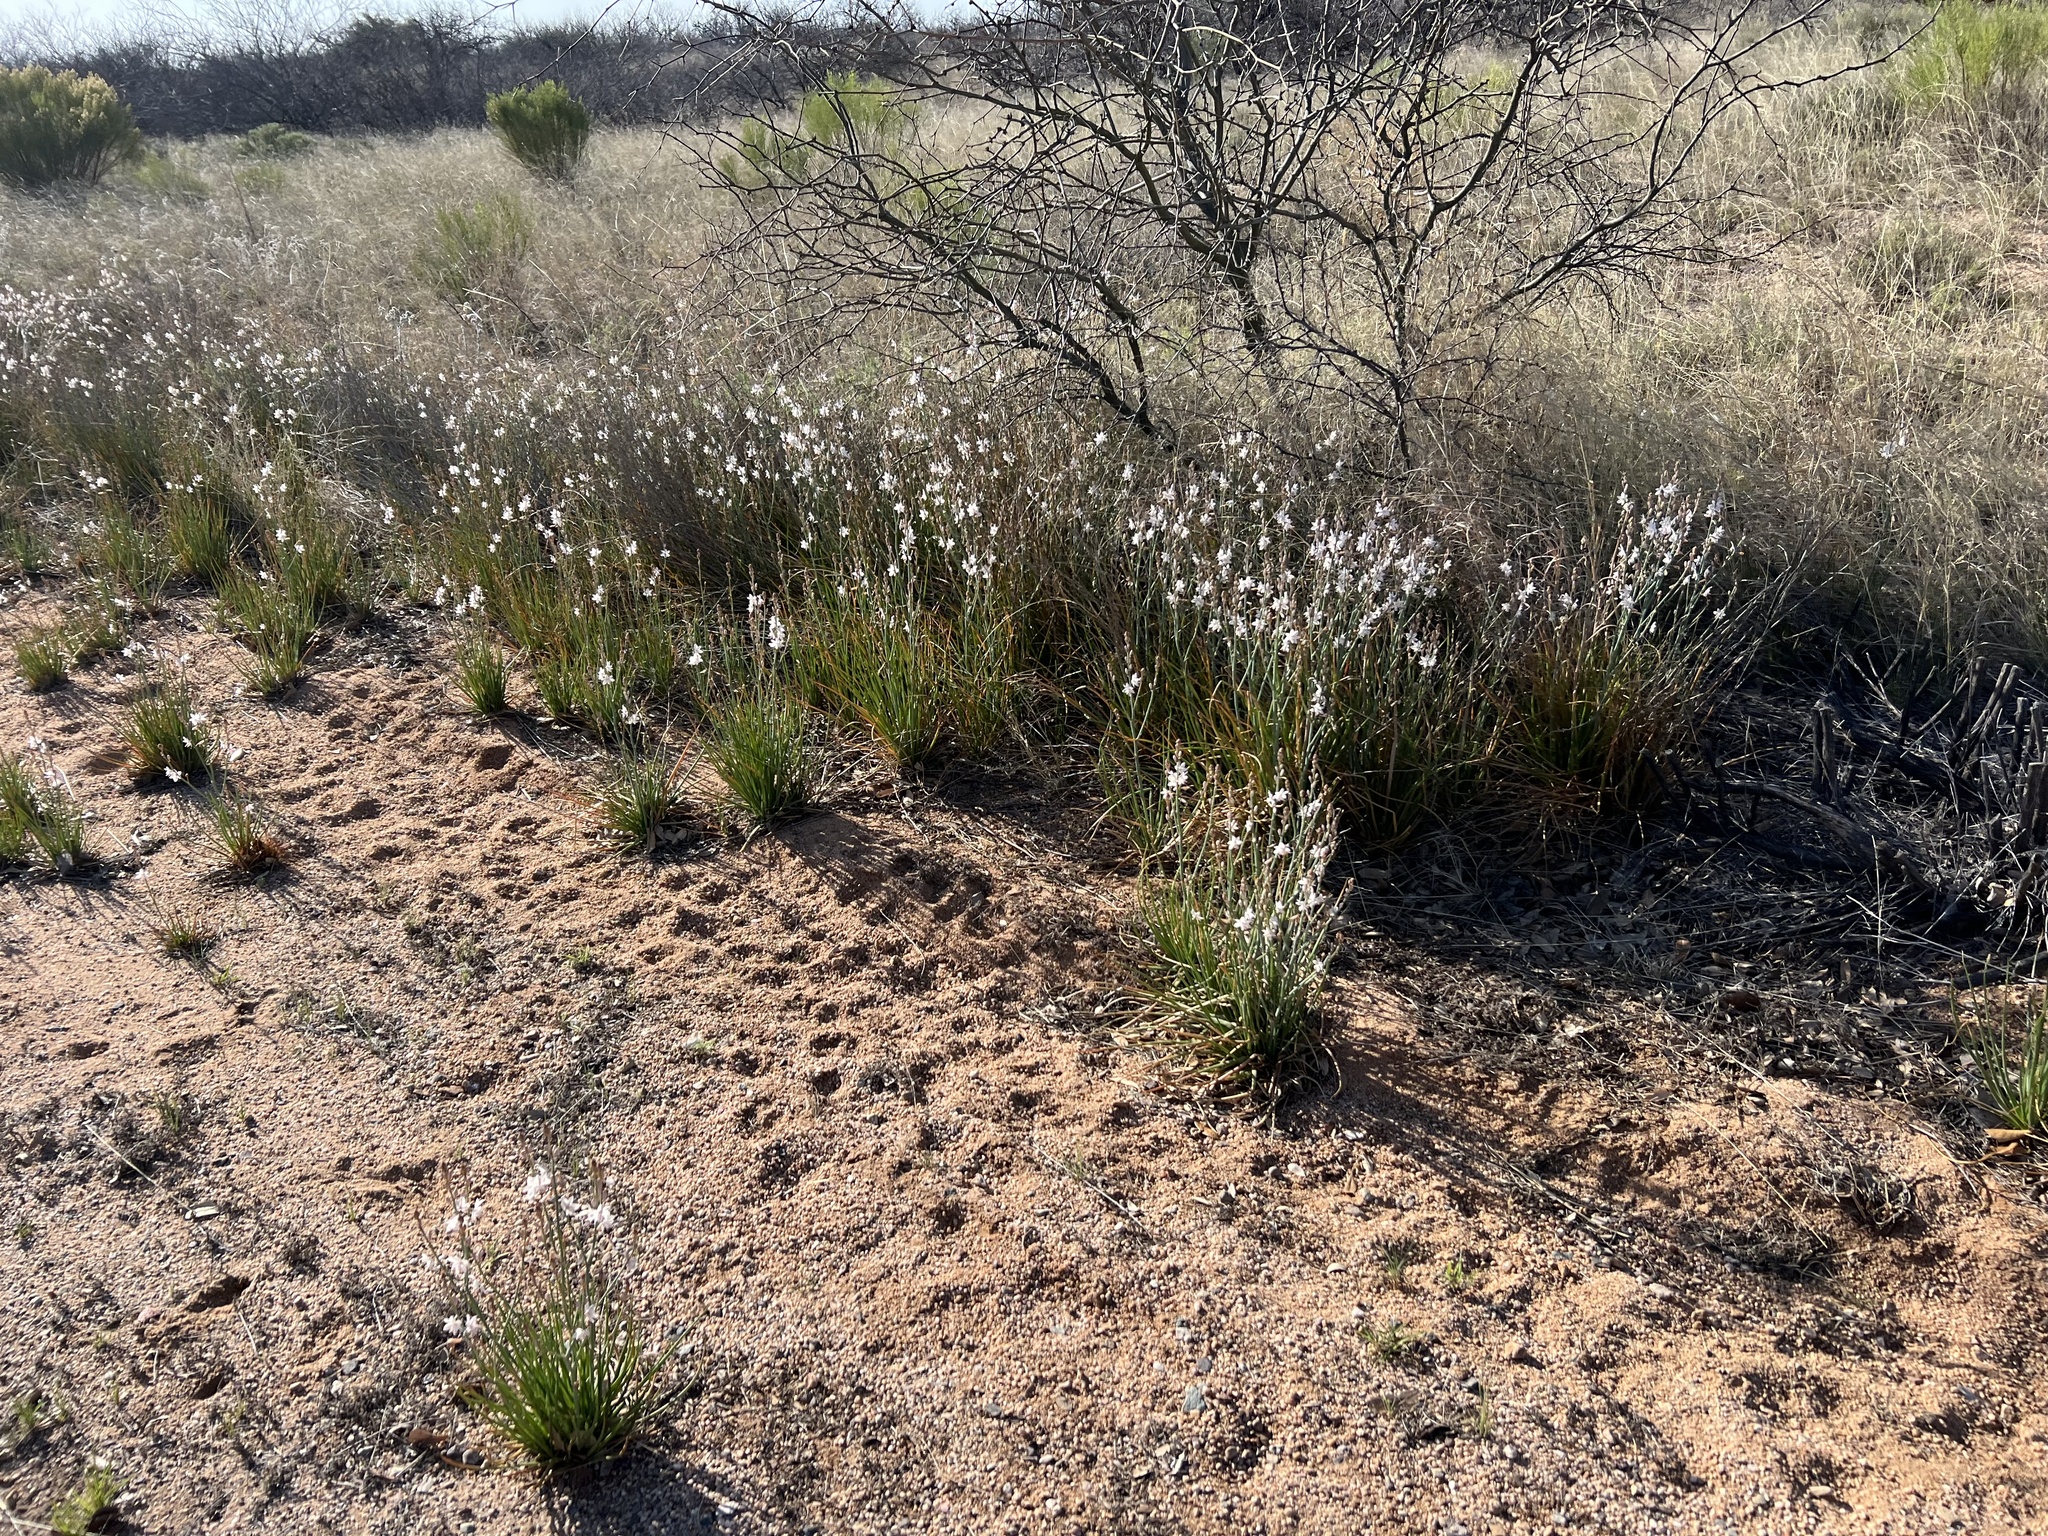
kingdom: Plantae
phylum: Tracheophyta
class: Liliopsida
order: Asparagales
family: Asphodelaceae
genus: Asphodelus
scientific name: Asphodelus fistulosus
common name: Onionweed
